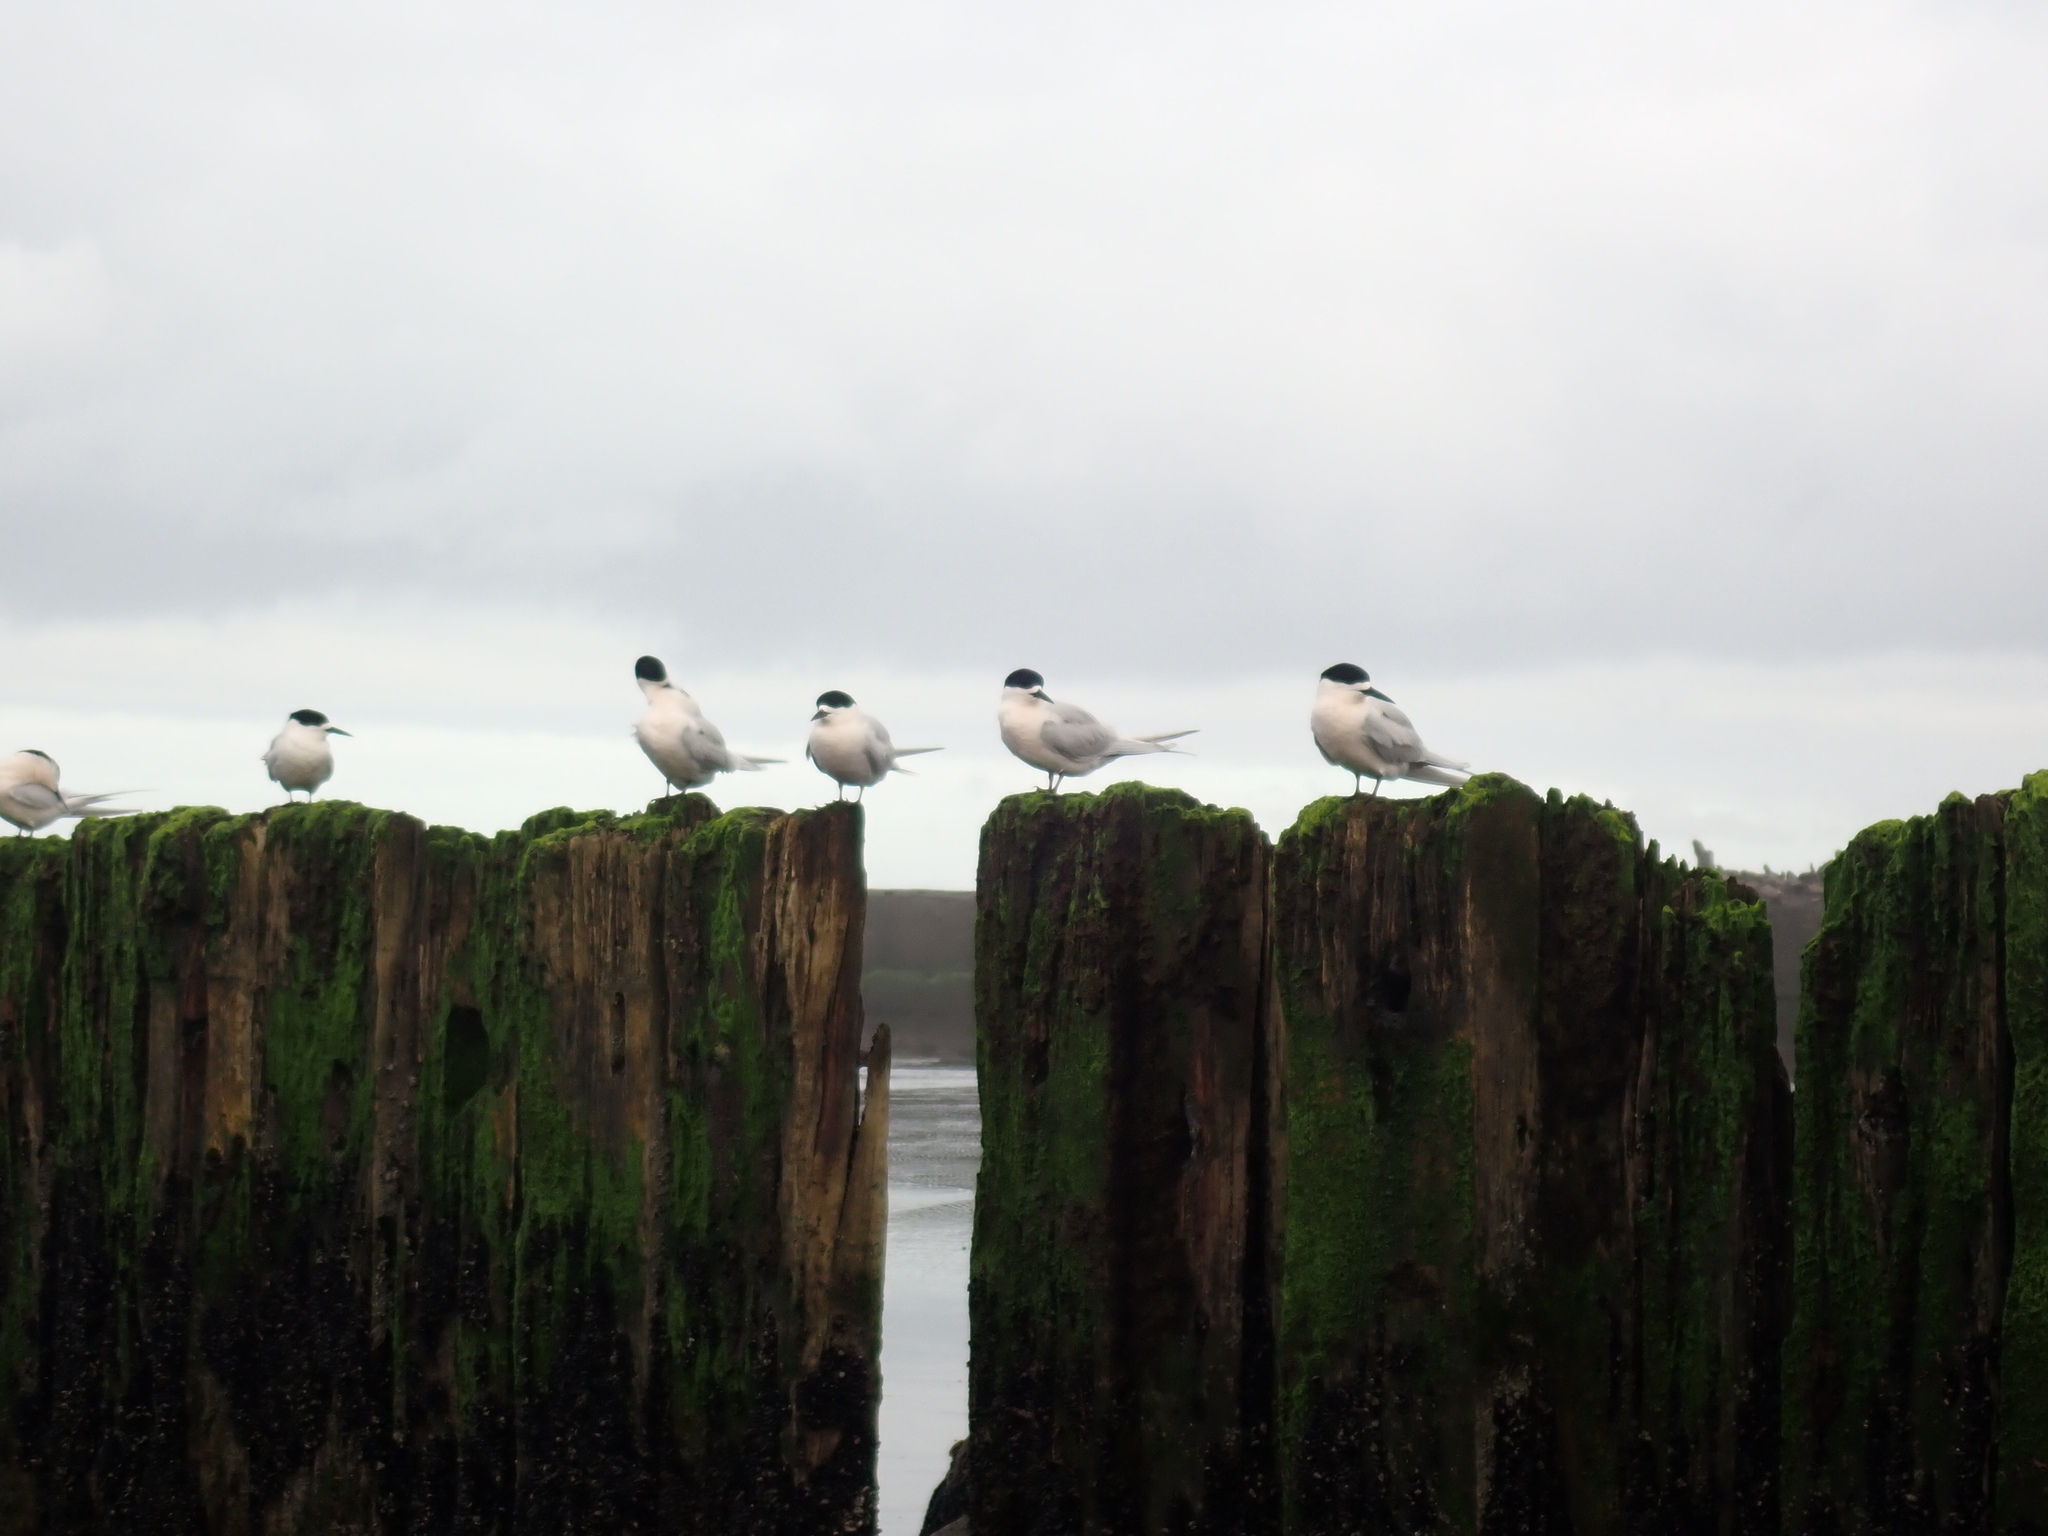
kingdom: Animalia
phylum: Chordata
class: Aves
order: Charadriiformes
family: Laridae
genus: Sterna
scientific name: Sterna striata
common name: White-fronted tern
